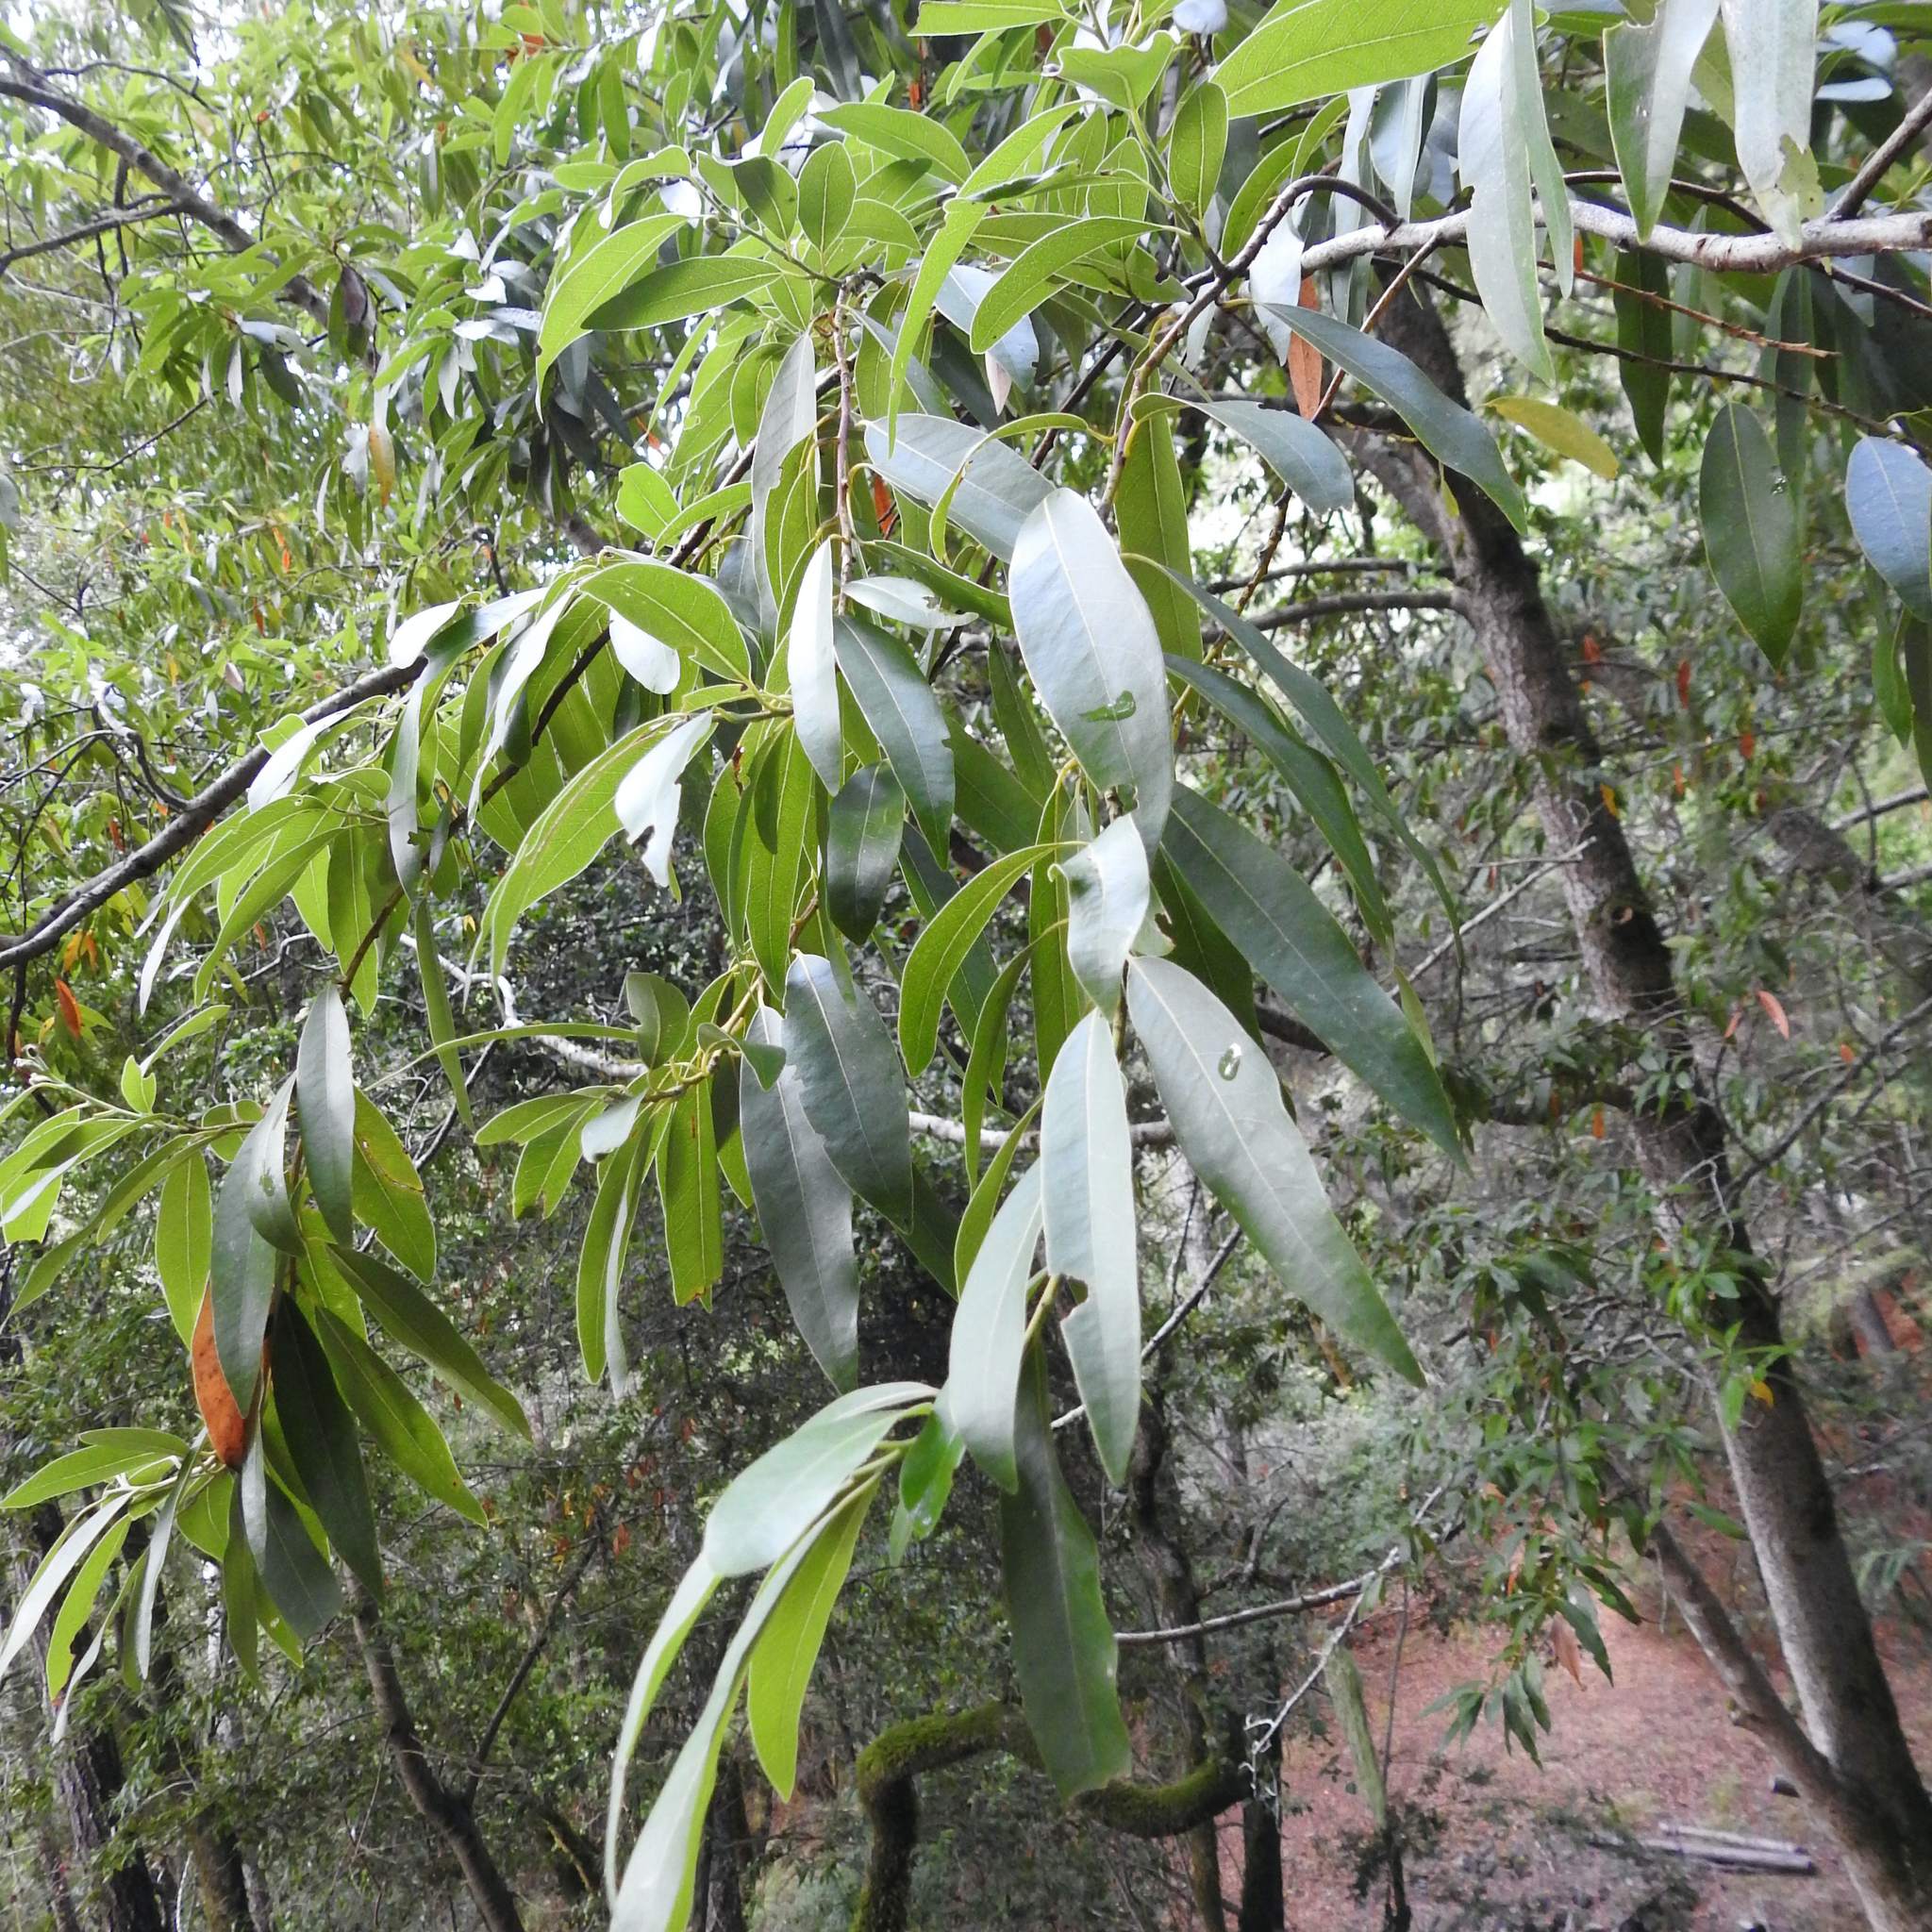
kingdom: Plantae
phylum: Tracheophyta
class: Magnoliopsida
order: Laurales
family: Lauraceae
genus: Umbellularia
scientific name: Umbellularia californica
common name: California bay
